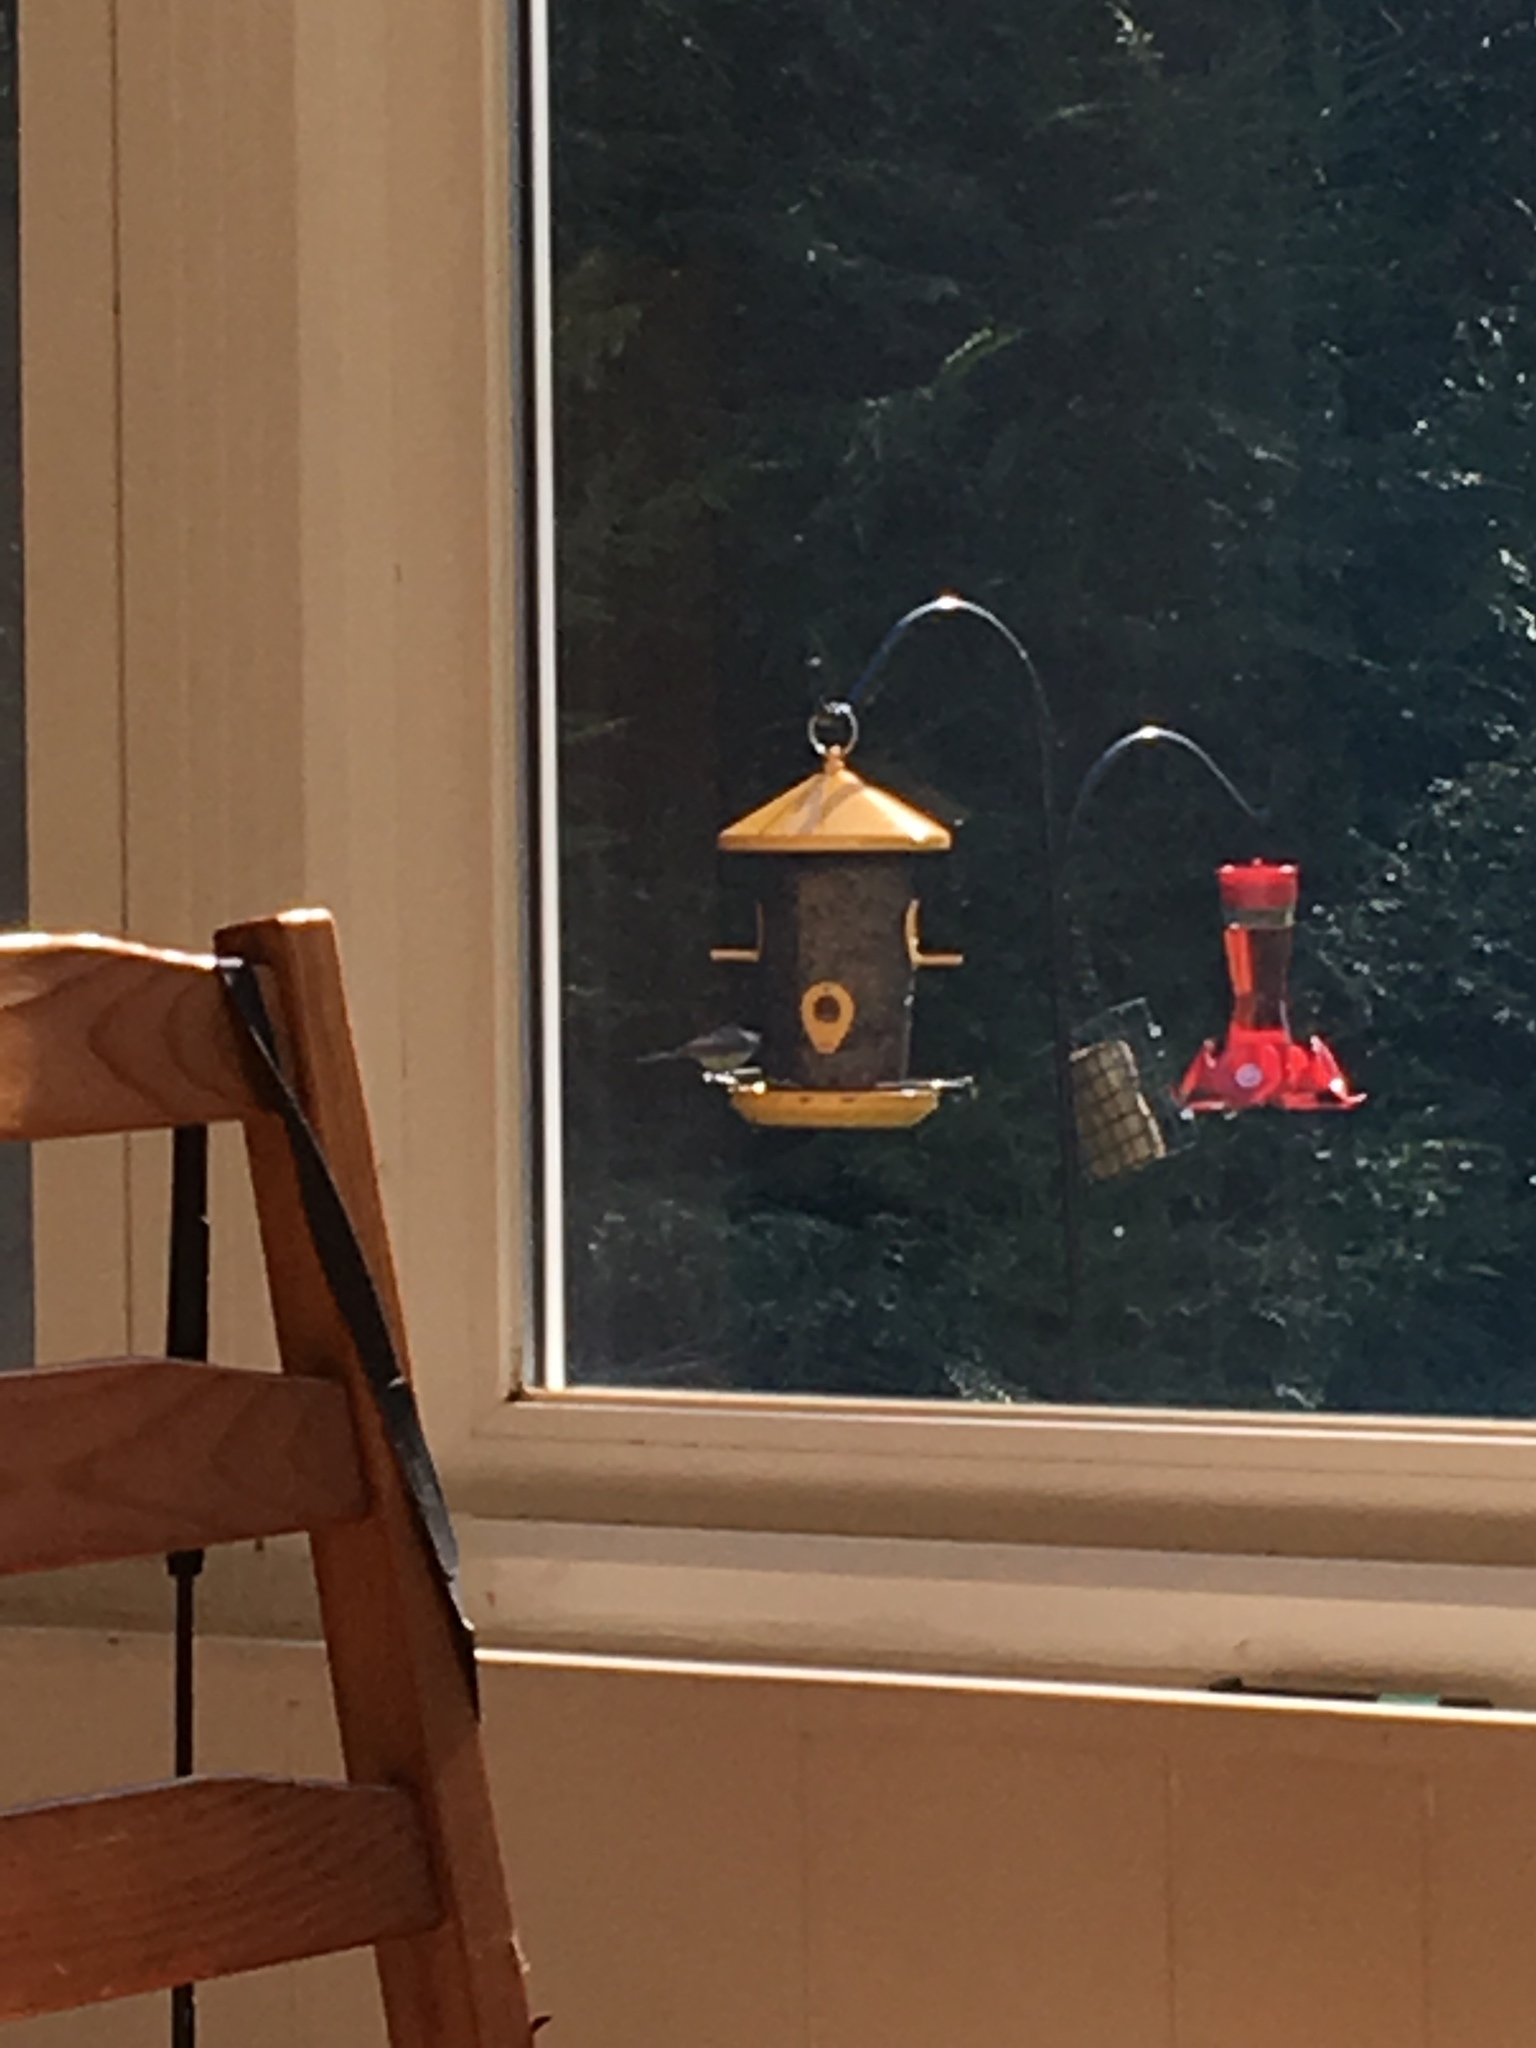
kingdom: Animalia
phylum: Chordata
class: Aves
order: Passeriformes
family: Paridae
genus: Poecile
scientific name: Poecile atricapillus
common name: Black-capped chickadee
